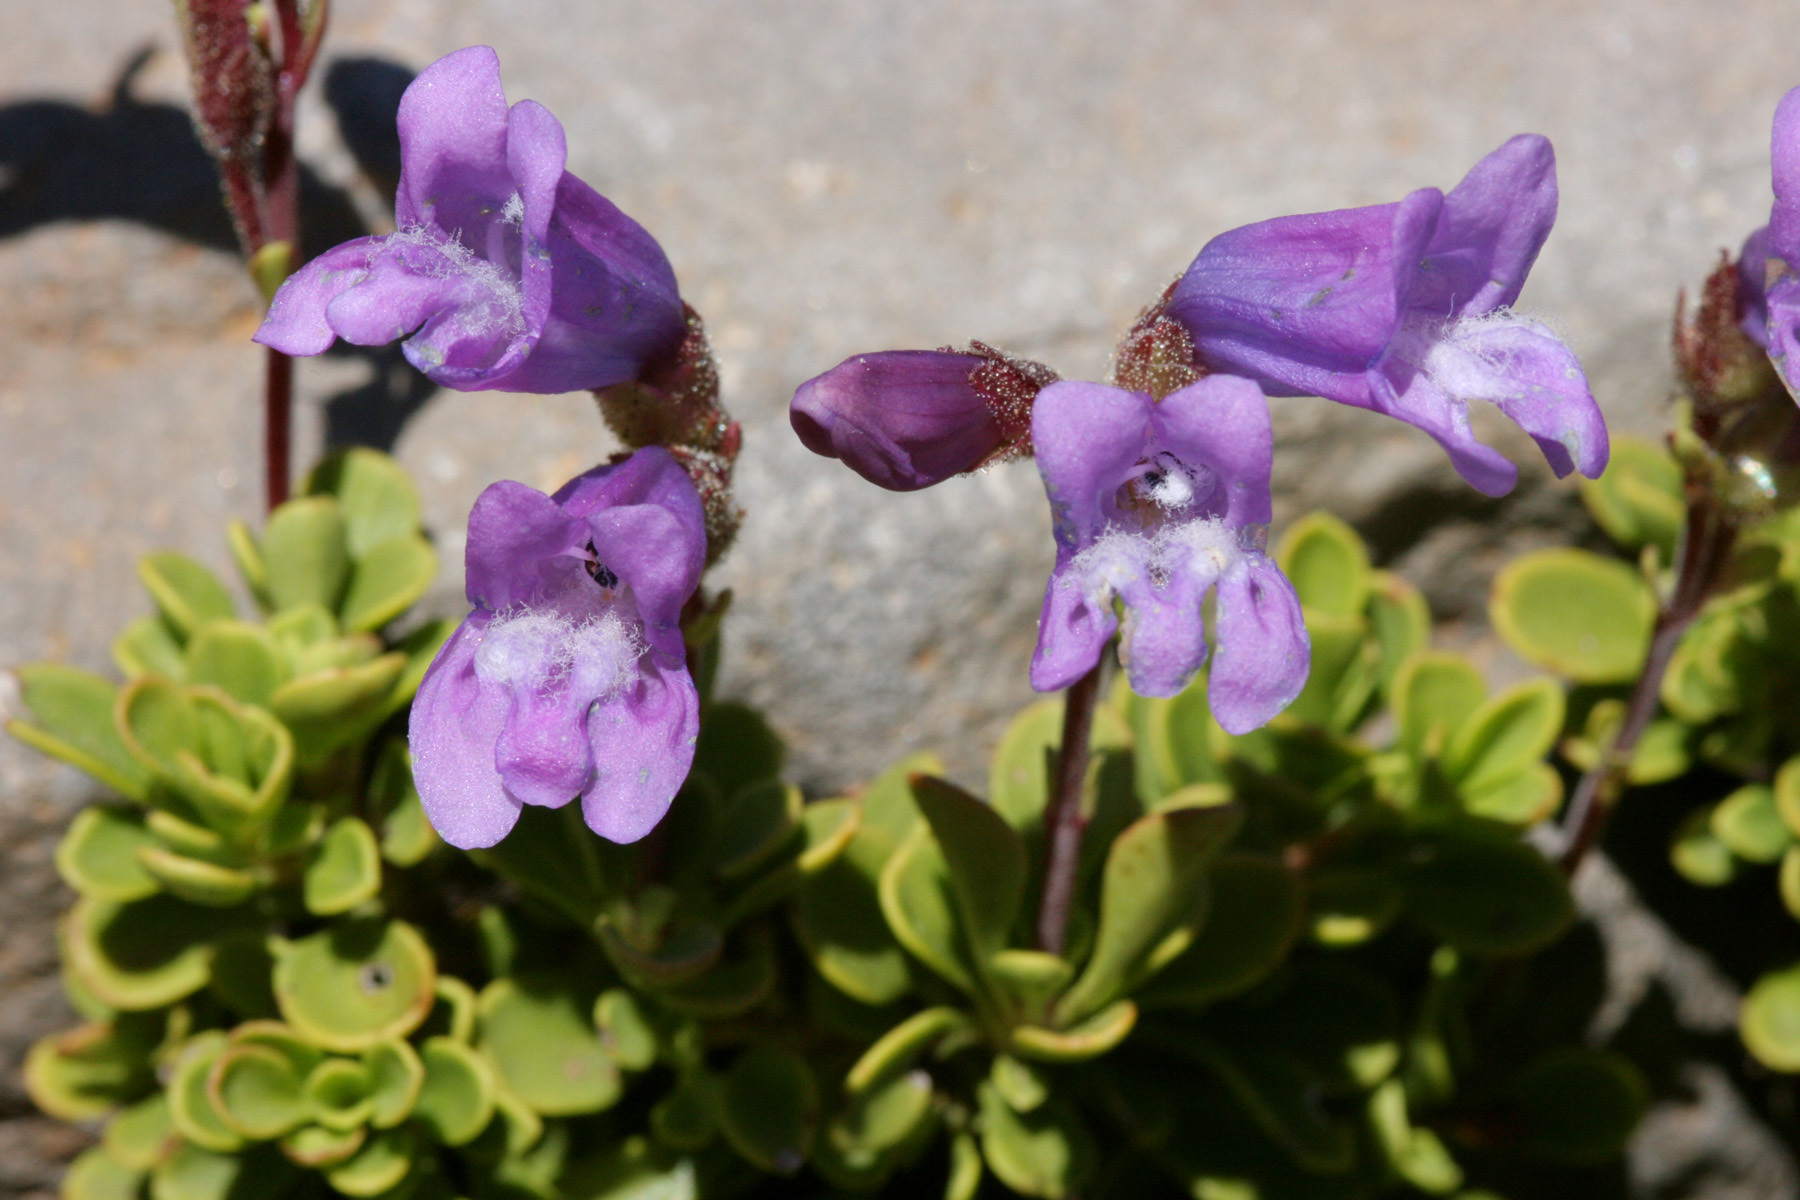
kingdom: Plantae
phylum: Tracheophyta
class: Magnoliopsida
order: Lamiales
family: Plantaginaceae
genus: Penstemon
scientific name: Penstemon davidsonii
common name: Davidson's penstemon
